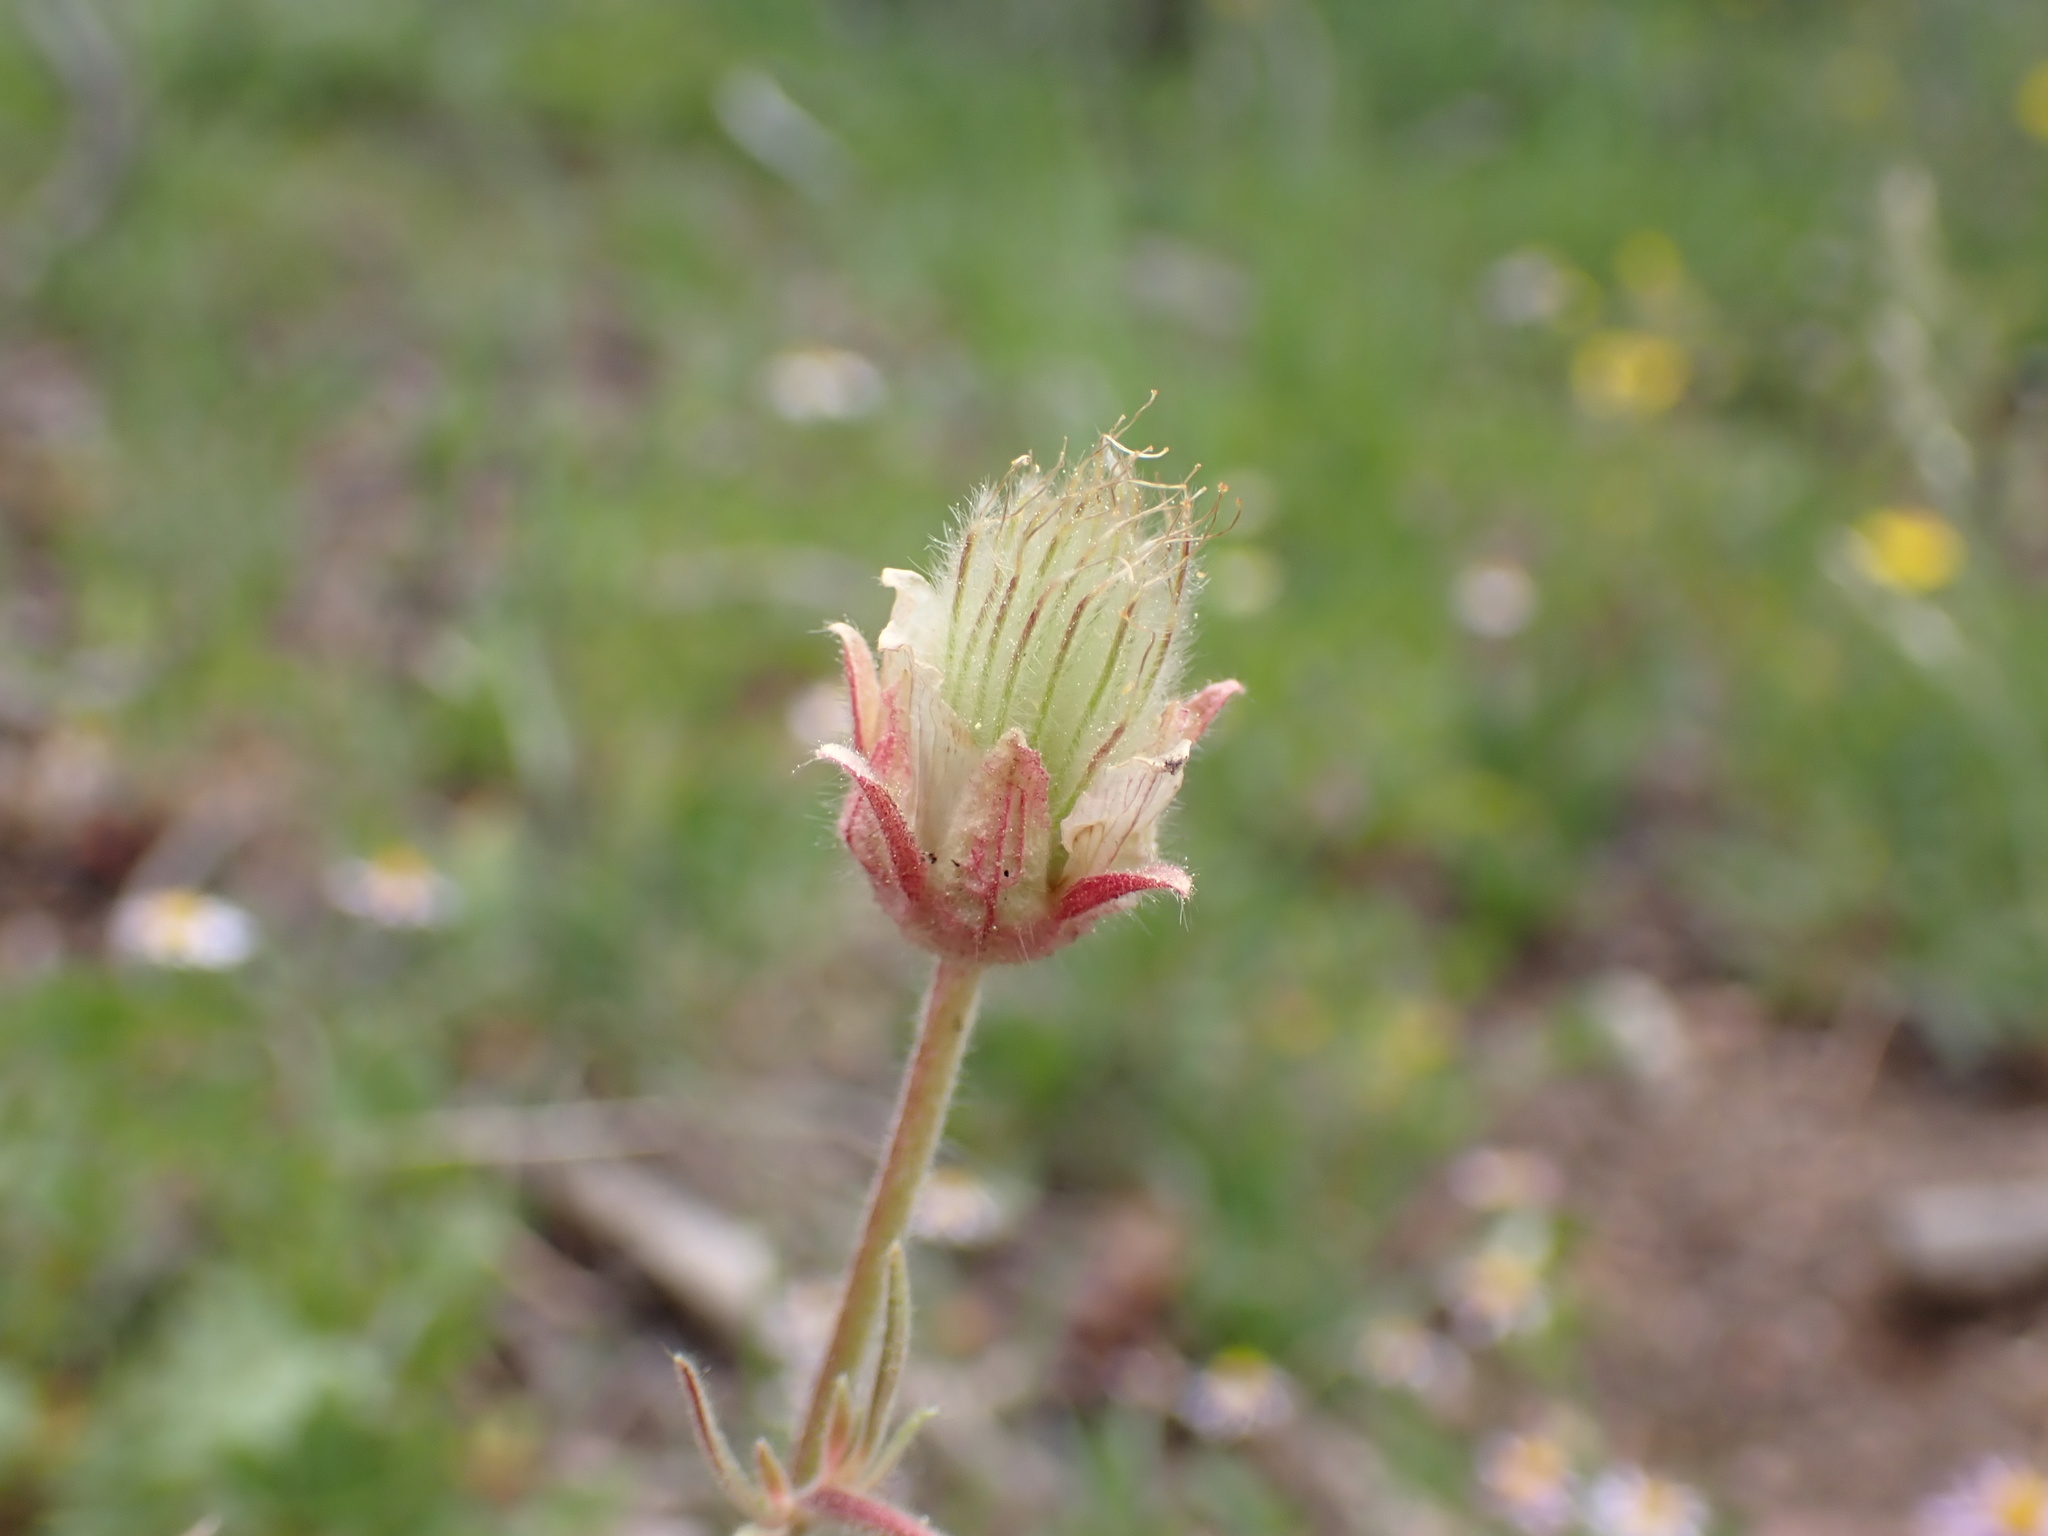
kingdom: Plantae
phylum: Tracheophyta
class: Magnoliopsida
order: Rosales
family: Rosaceae
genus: Geum
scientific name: Geum triflorum
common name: Old man's whiskers
